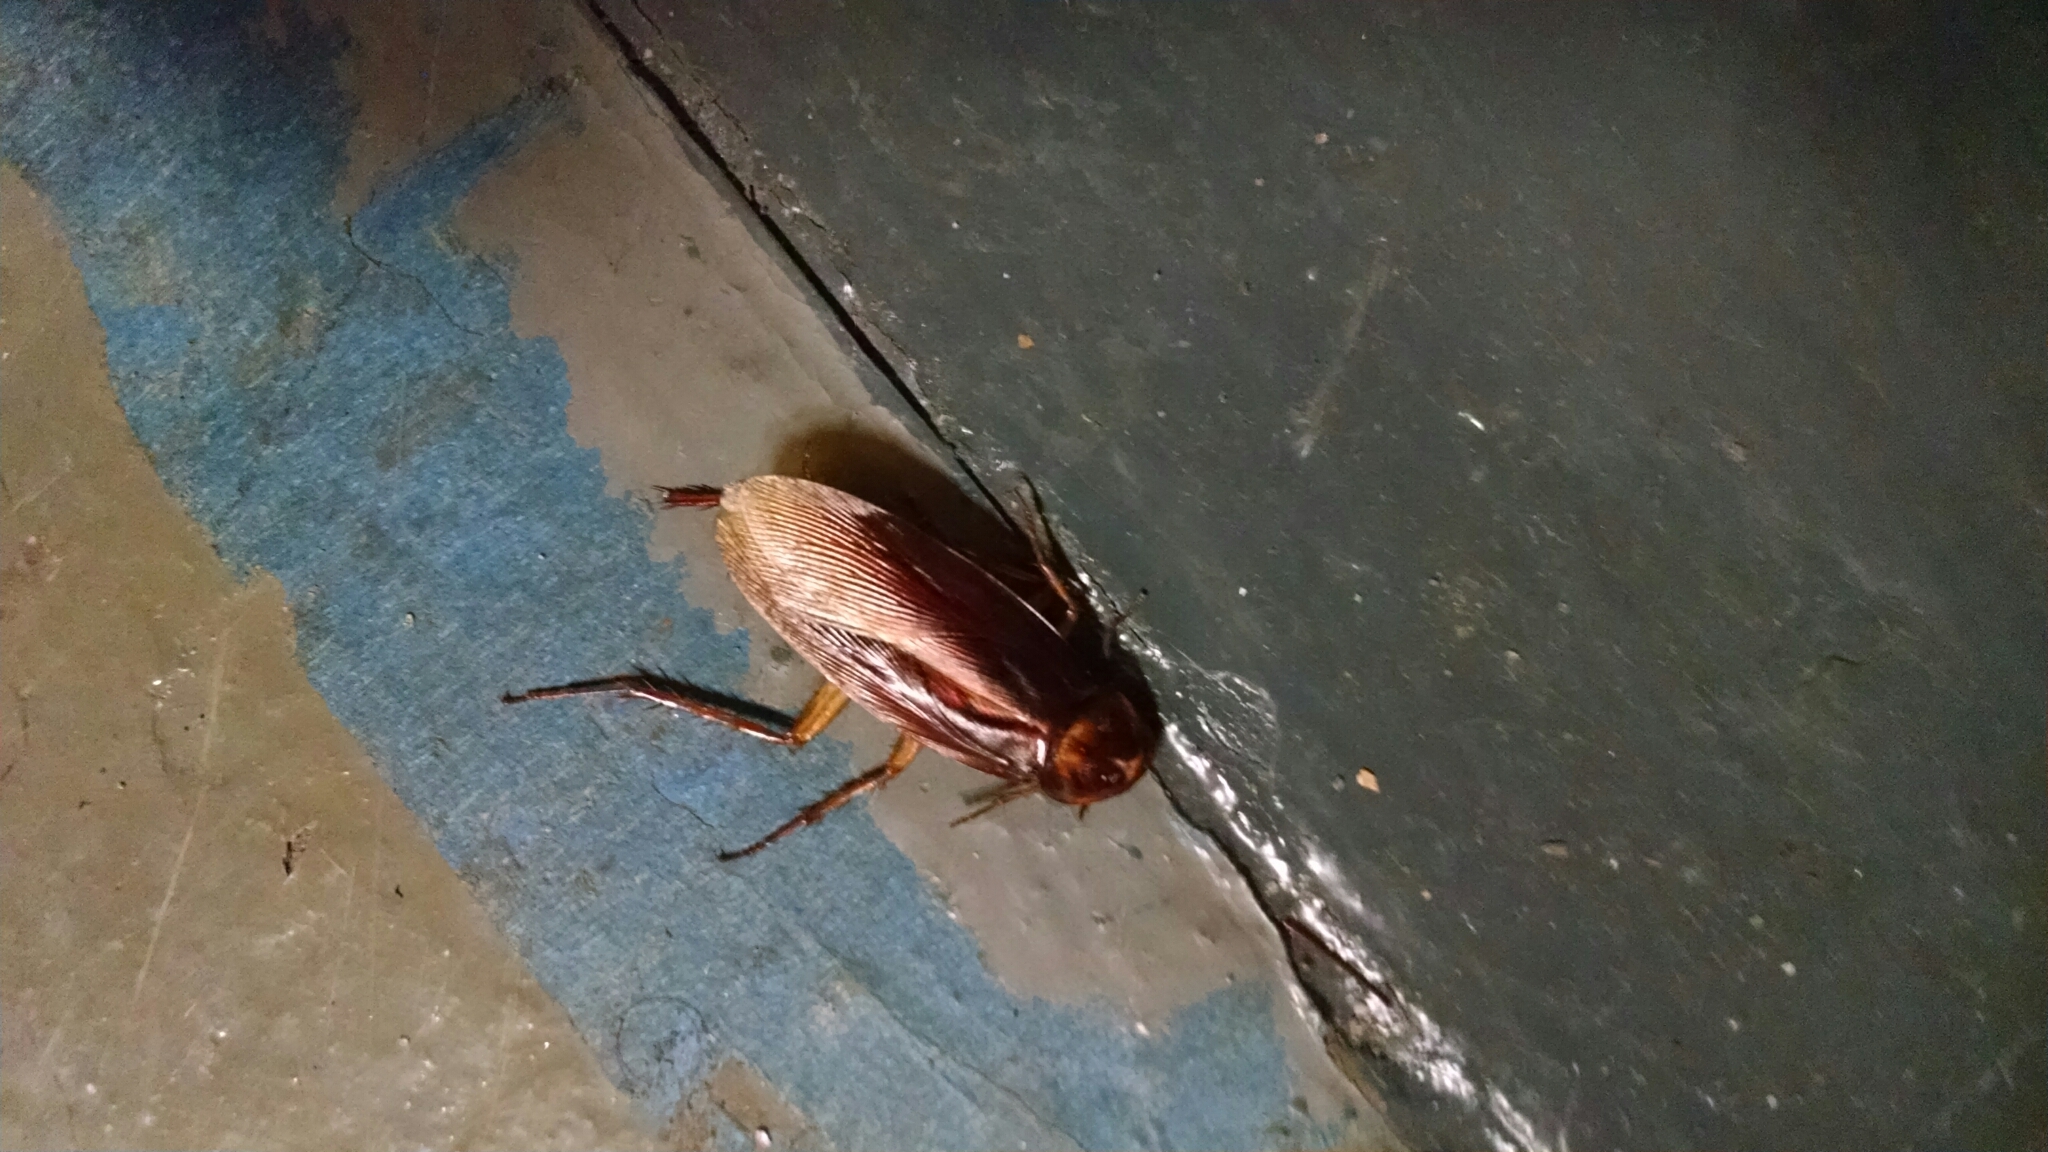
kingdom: Animalia
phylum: Arthropoda
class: Insecta
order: Blattodea
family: Blattidae
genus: Periplaneta
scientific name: Periplaneta americana
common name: American cockroach
